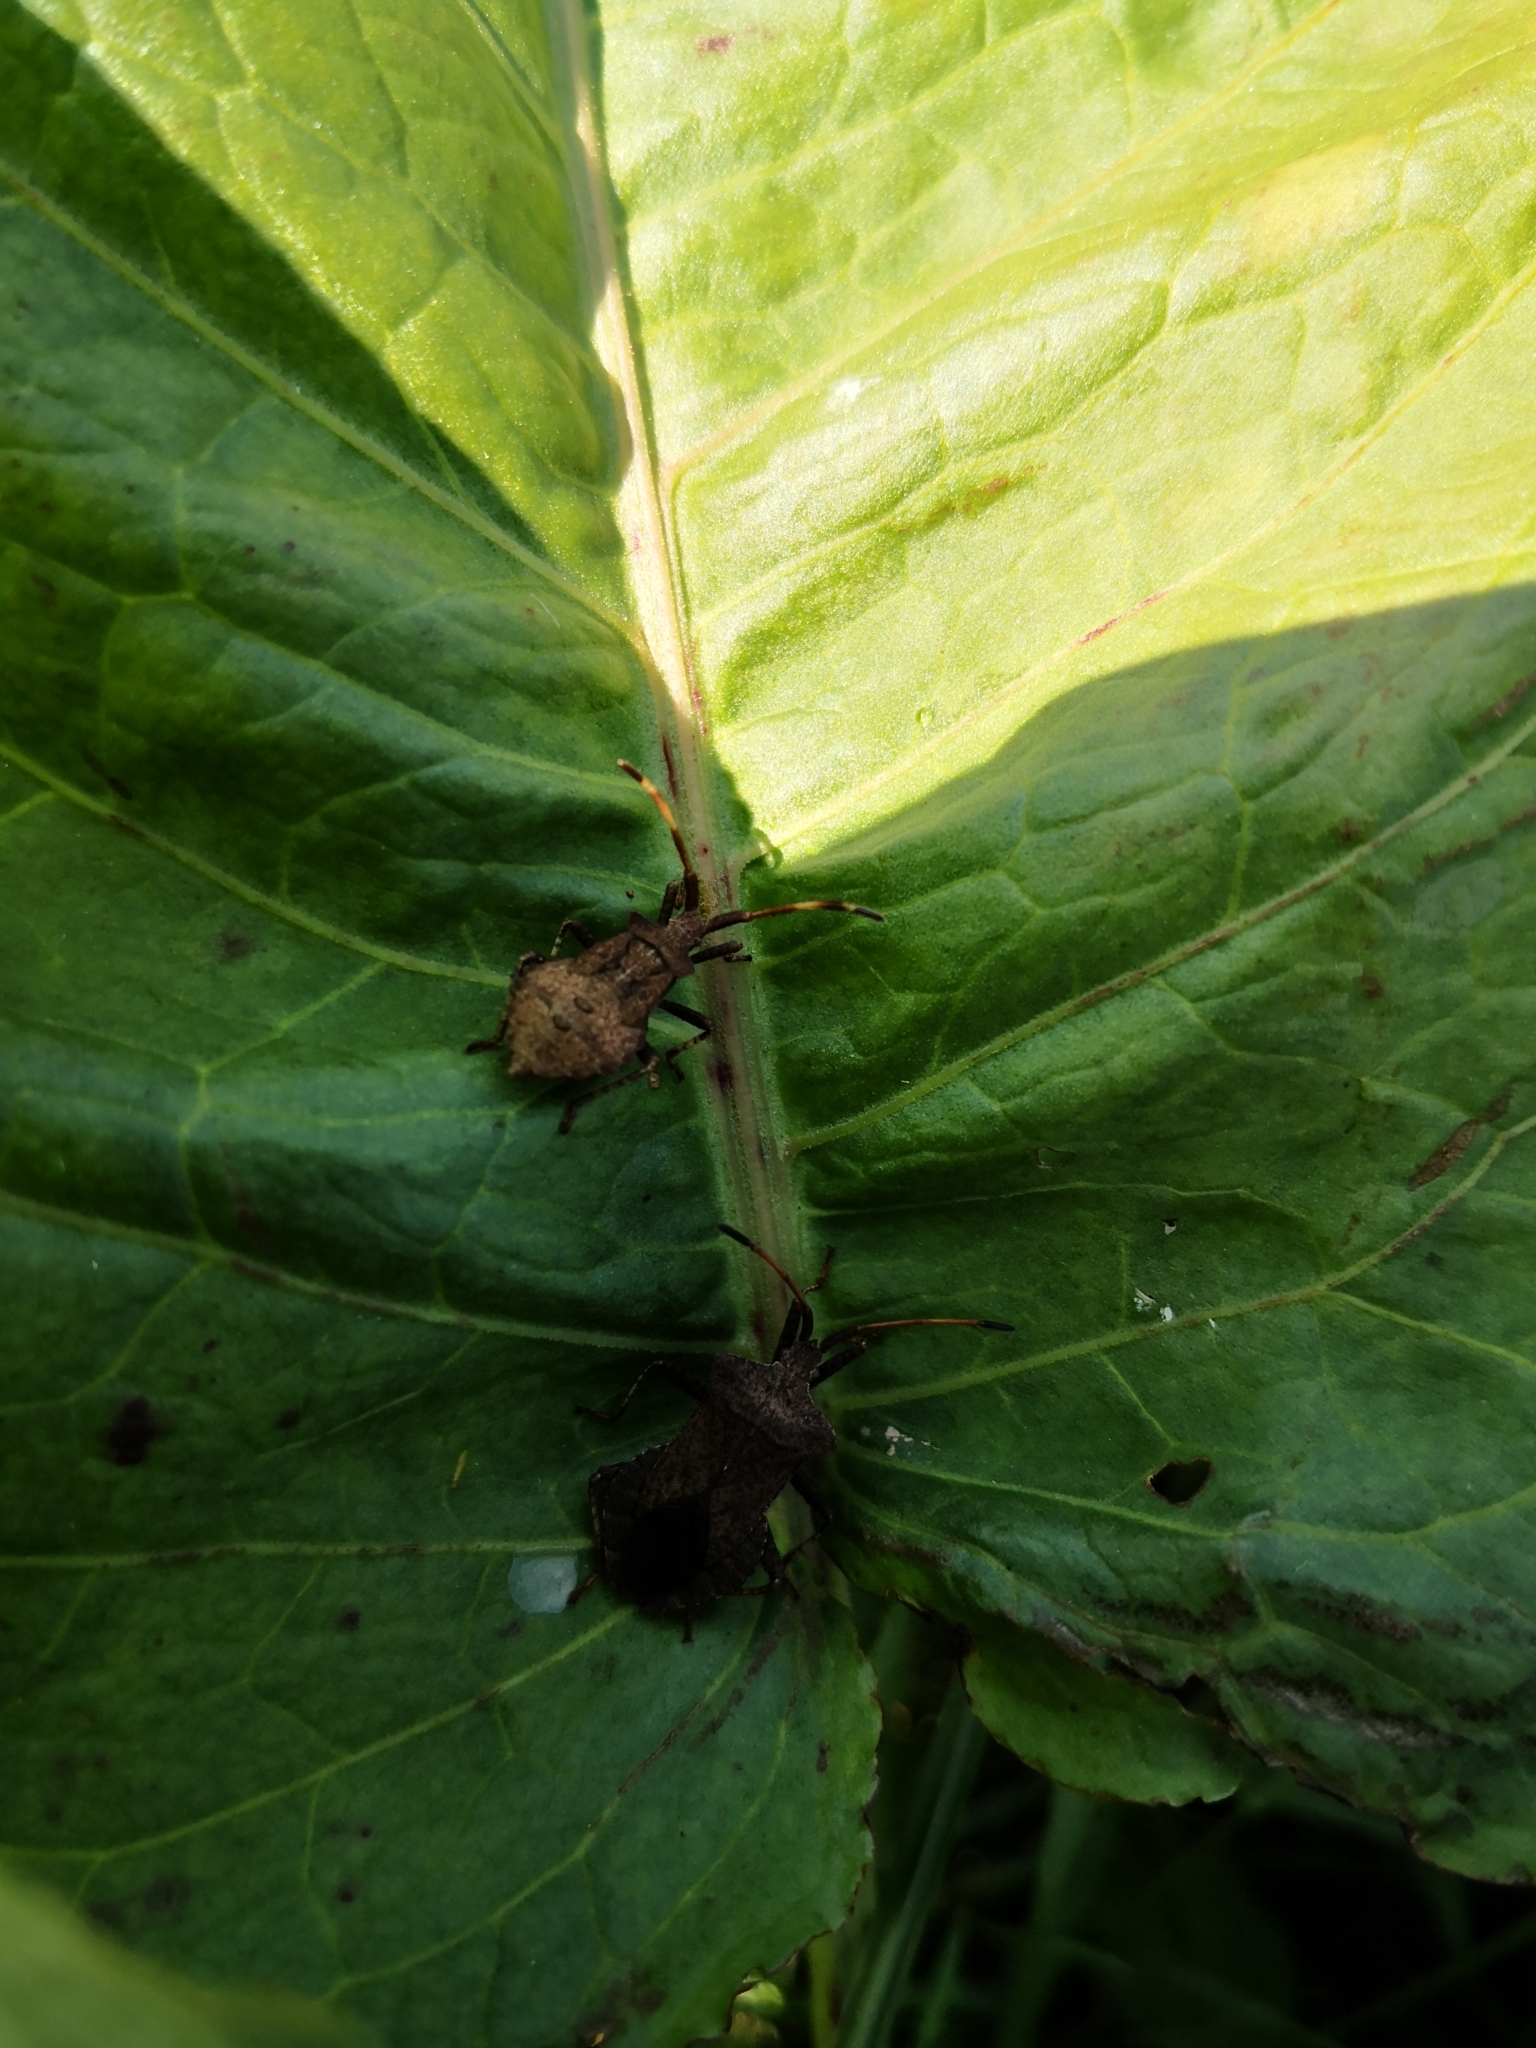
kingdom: Animalia
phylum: Arthropoda
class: Insecta
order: Hemiptera
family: Coreidae
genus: Coreus
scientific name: Coreus marginatus
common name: Dock bug
